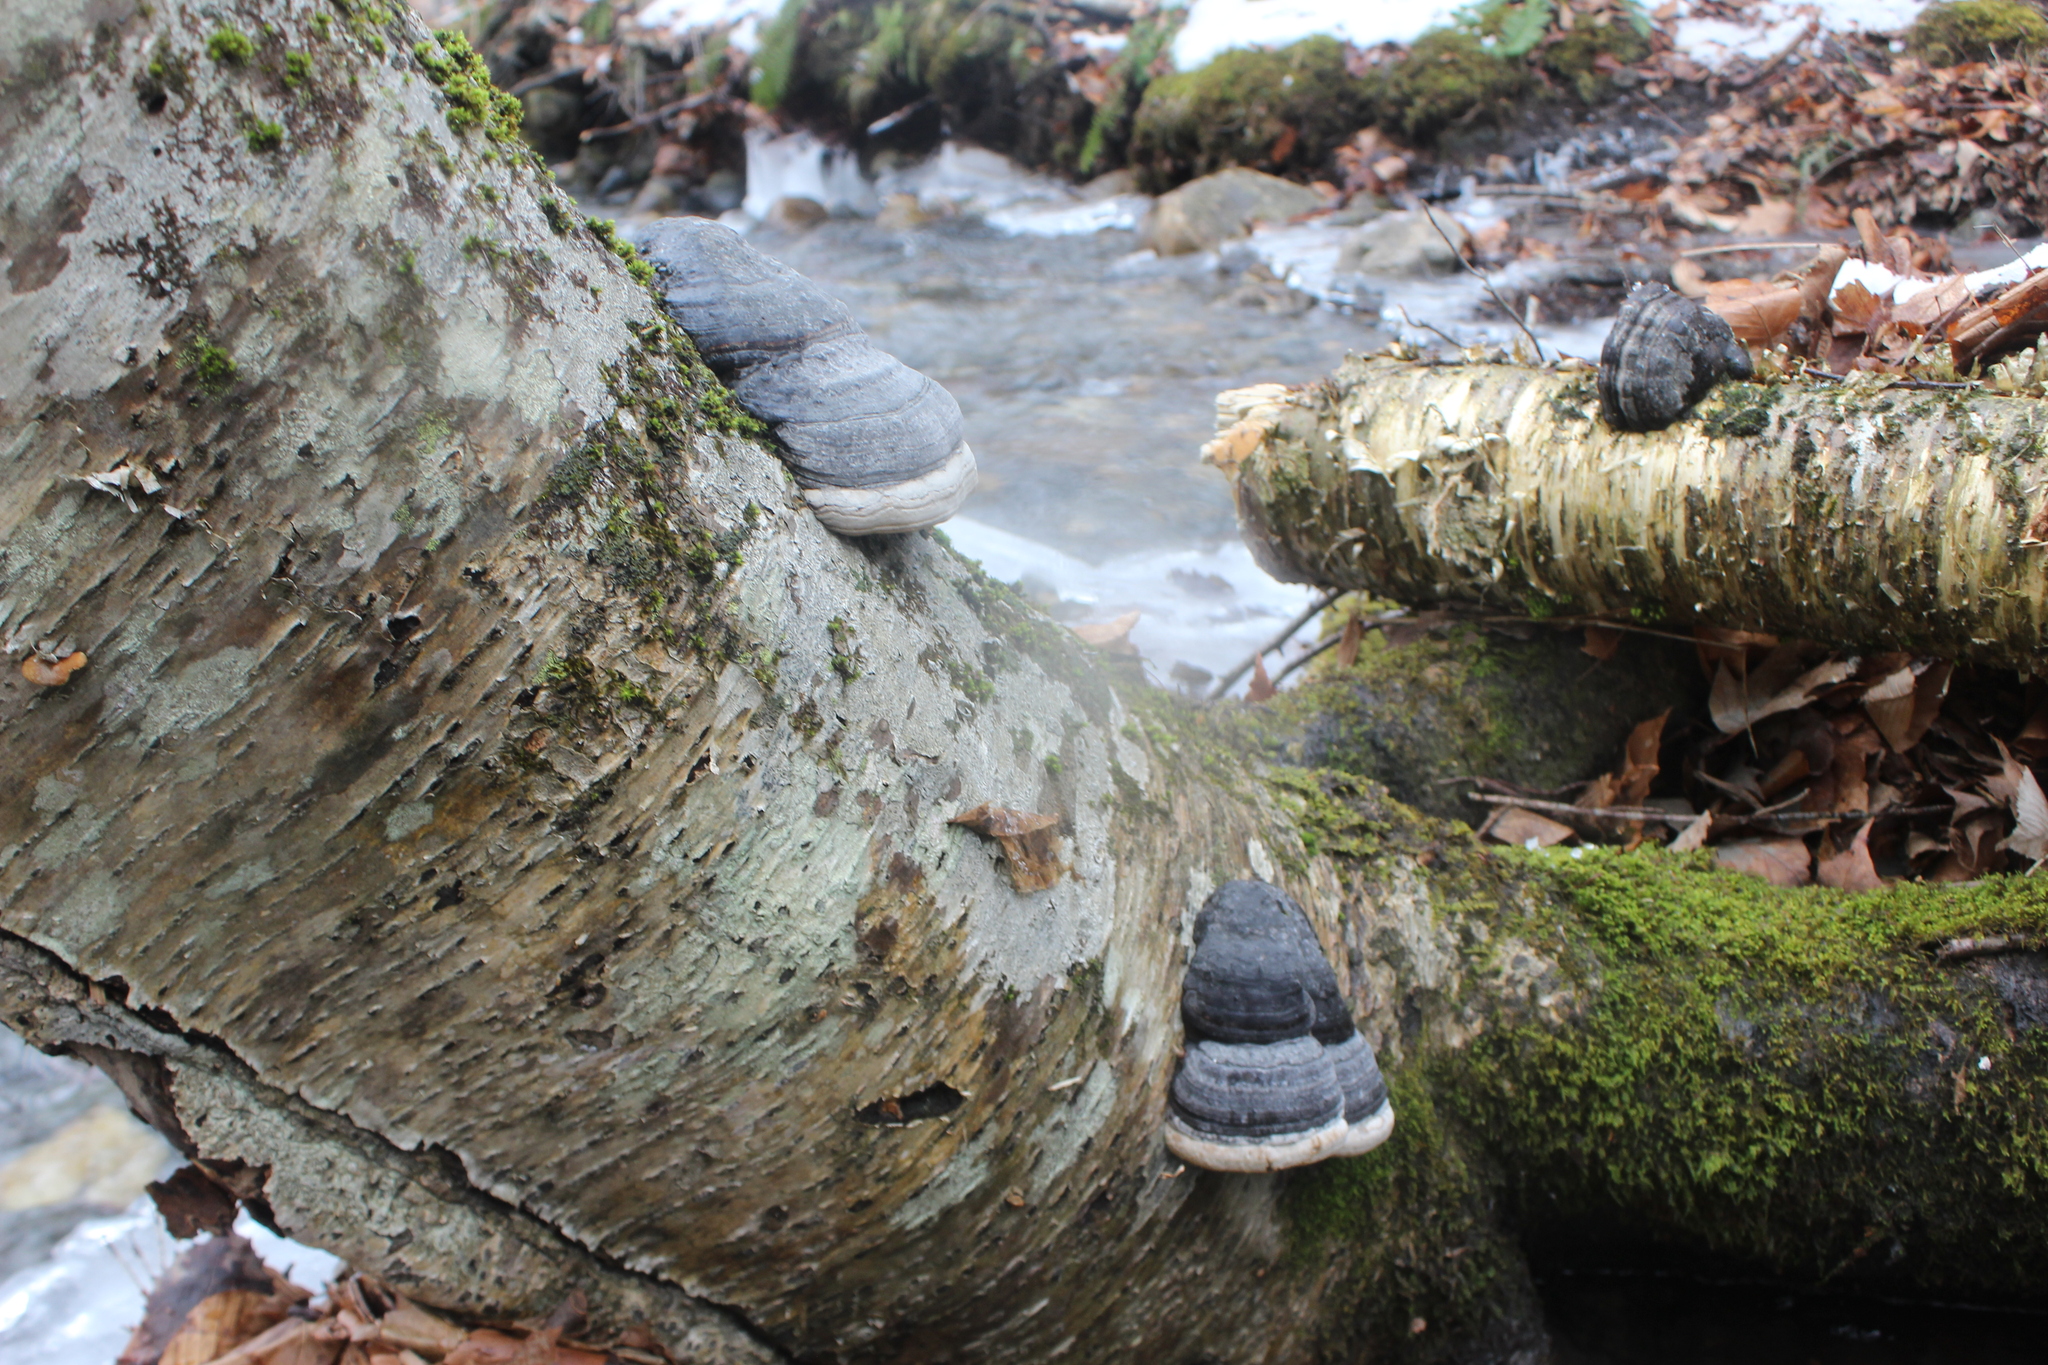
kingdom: Fungi
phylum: Basidiomycota
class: Agaricomycetes
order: Polyporales
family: Polyporaceae
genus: Fomes
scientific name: Fomes fomentarius
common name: Hoof fungus
